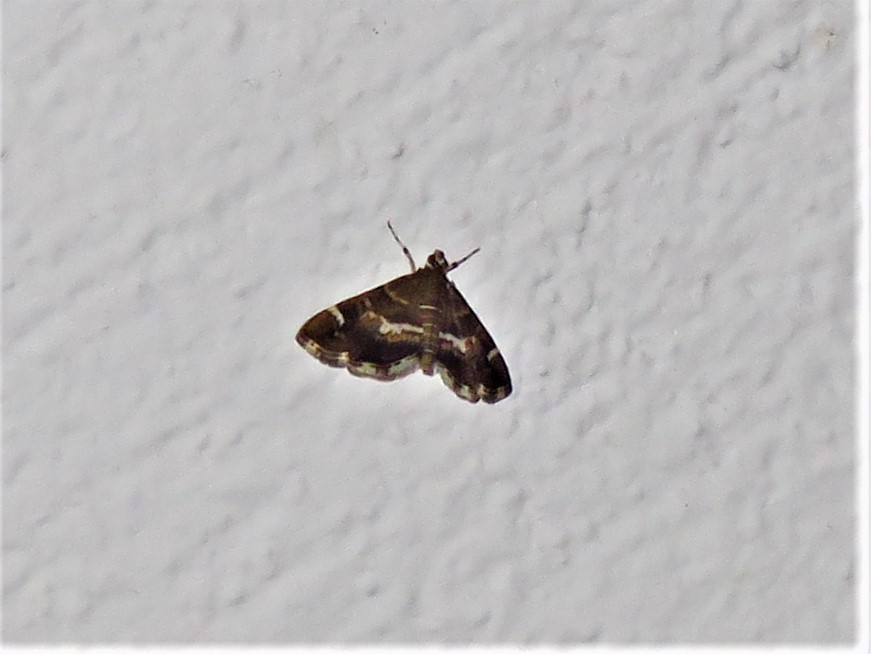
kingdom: Animalia
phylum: Arthropoda
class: Insecta
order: Lepidoptera
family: Crambidae
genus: Hymenia
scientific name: Hymenia perspectalis
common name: Spotted beet webworm
